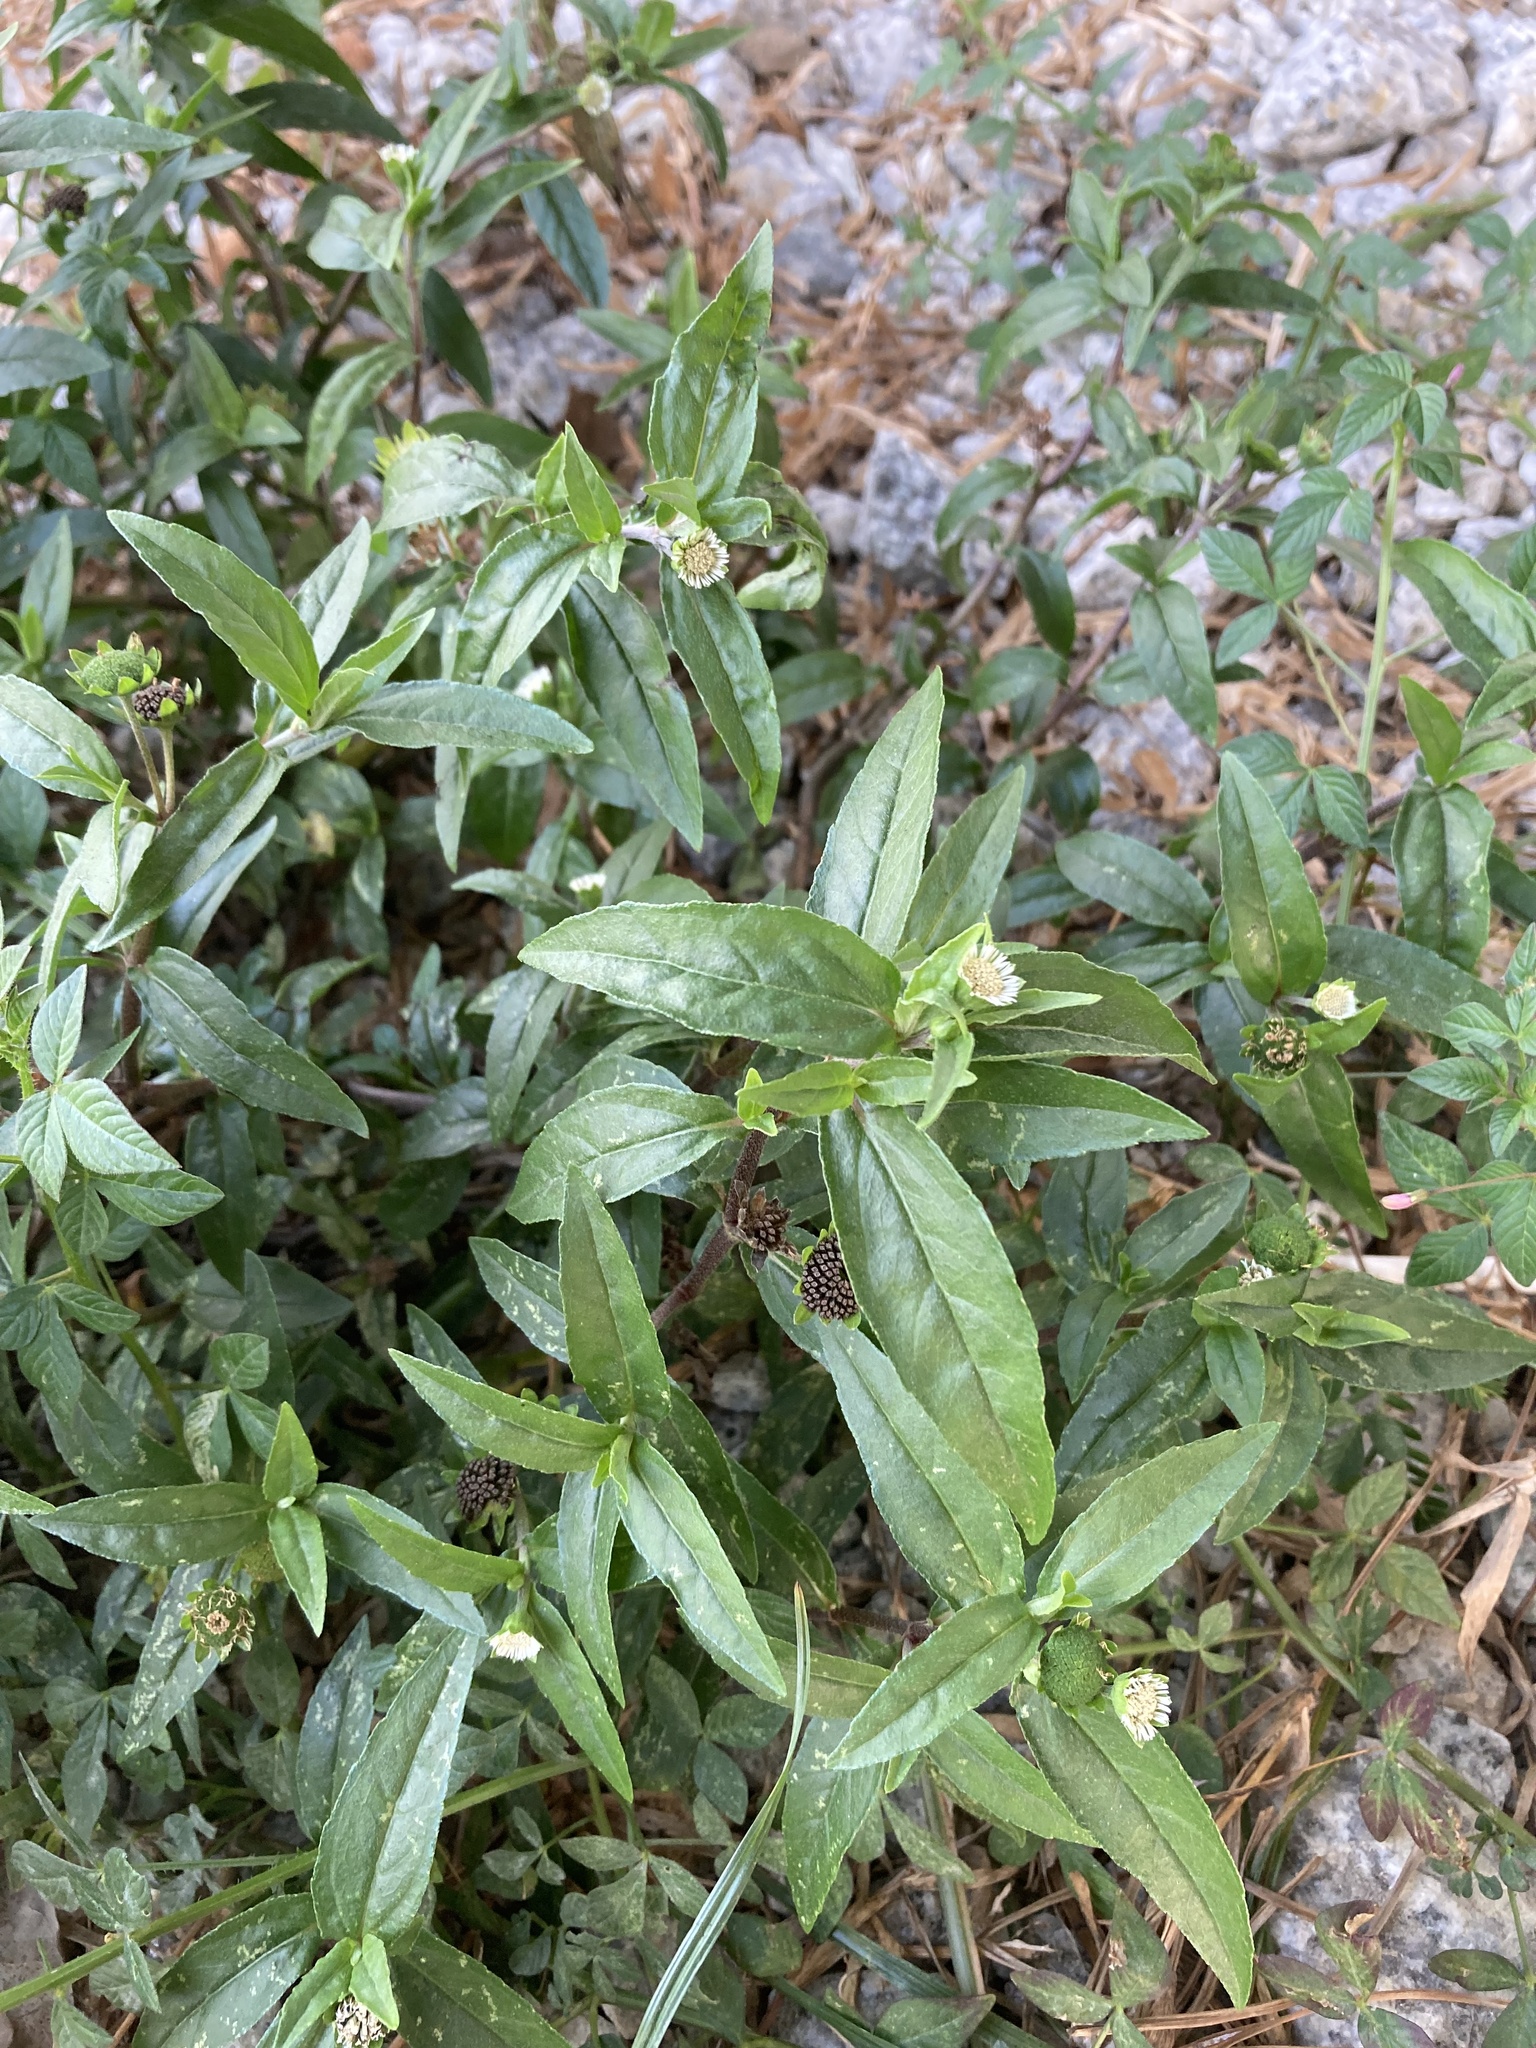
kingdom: Plantae
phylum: Tracheophyta
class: Magnoliopsida
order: Asterales
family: Asteraceae
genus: Eclipta
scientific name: Eclipta prostrata
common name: False daisy
